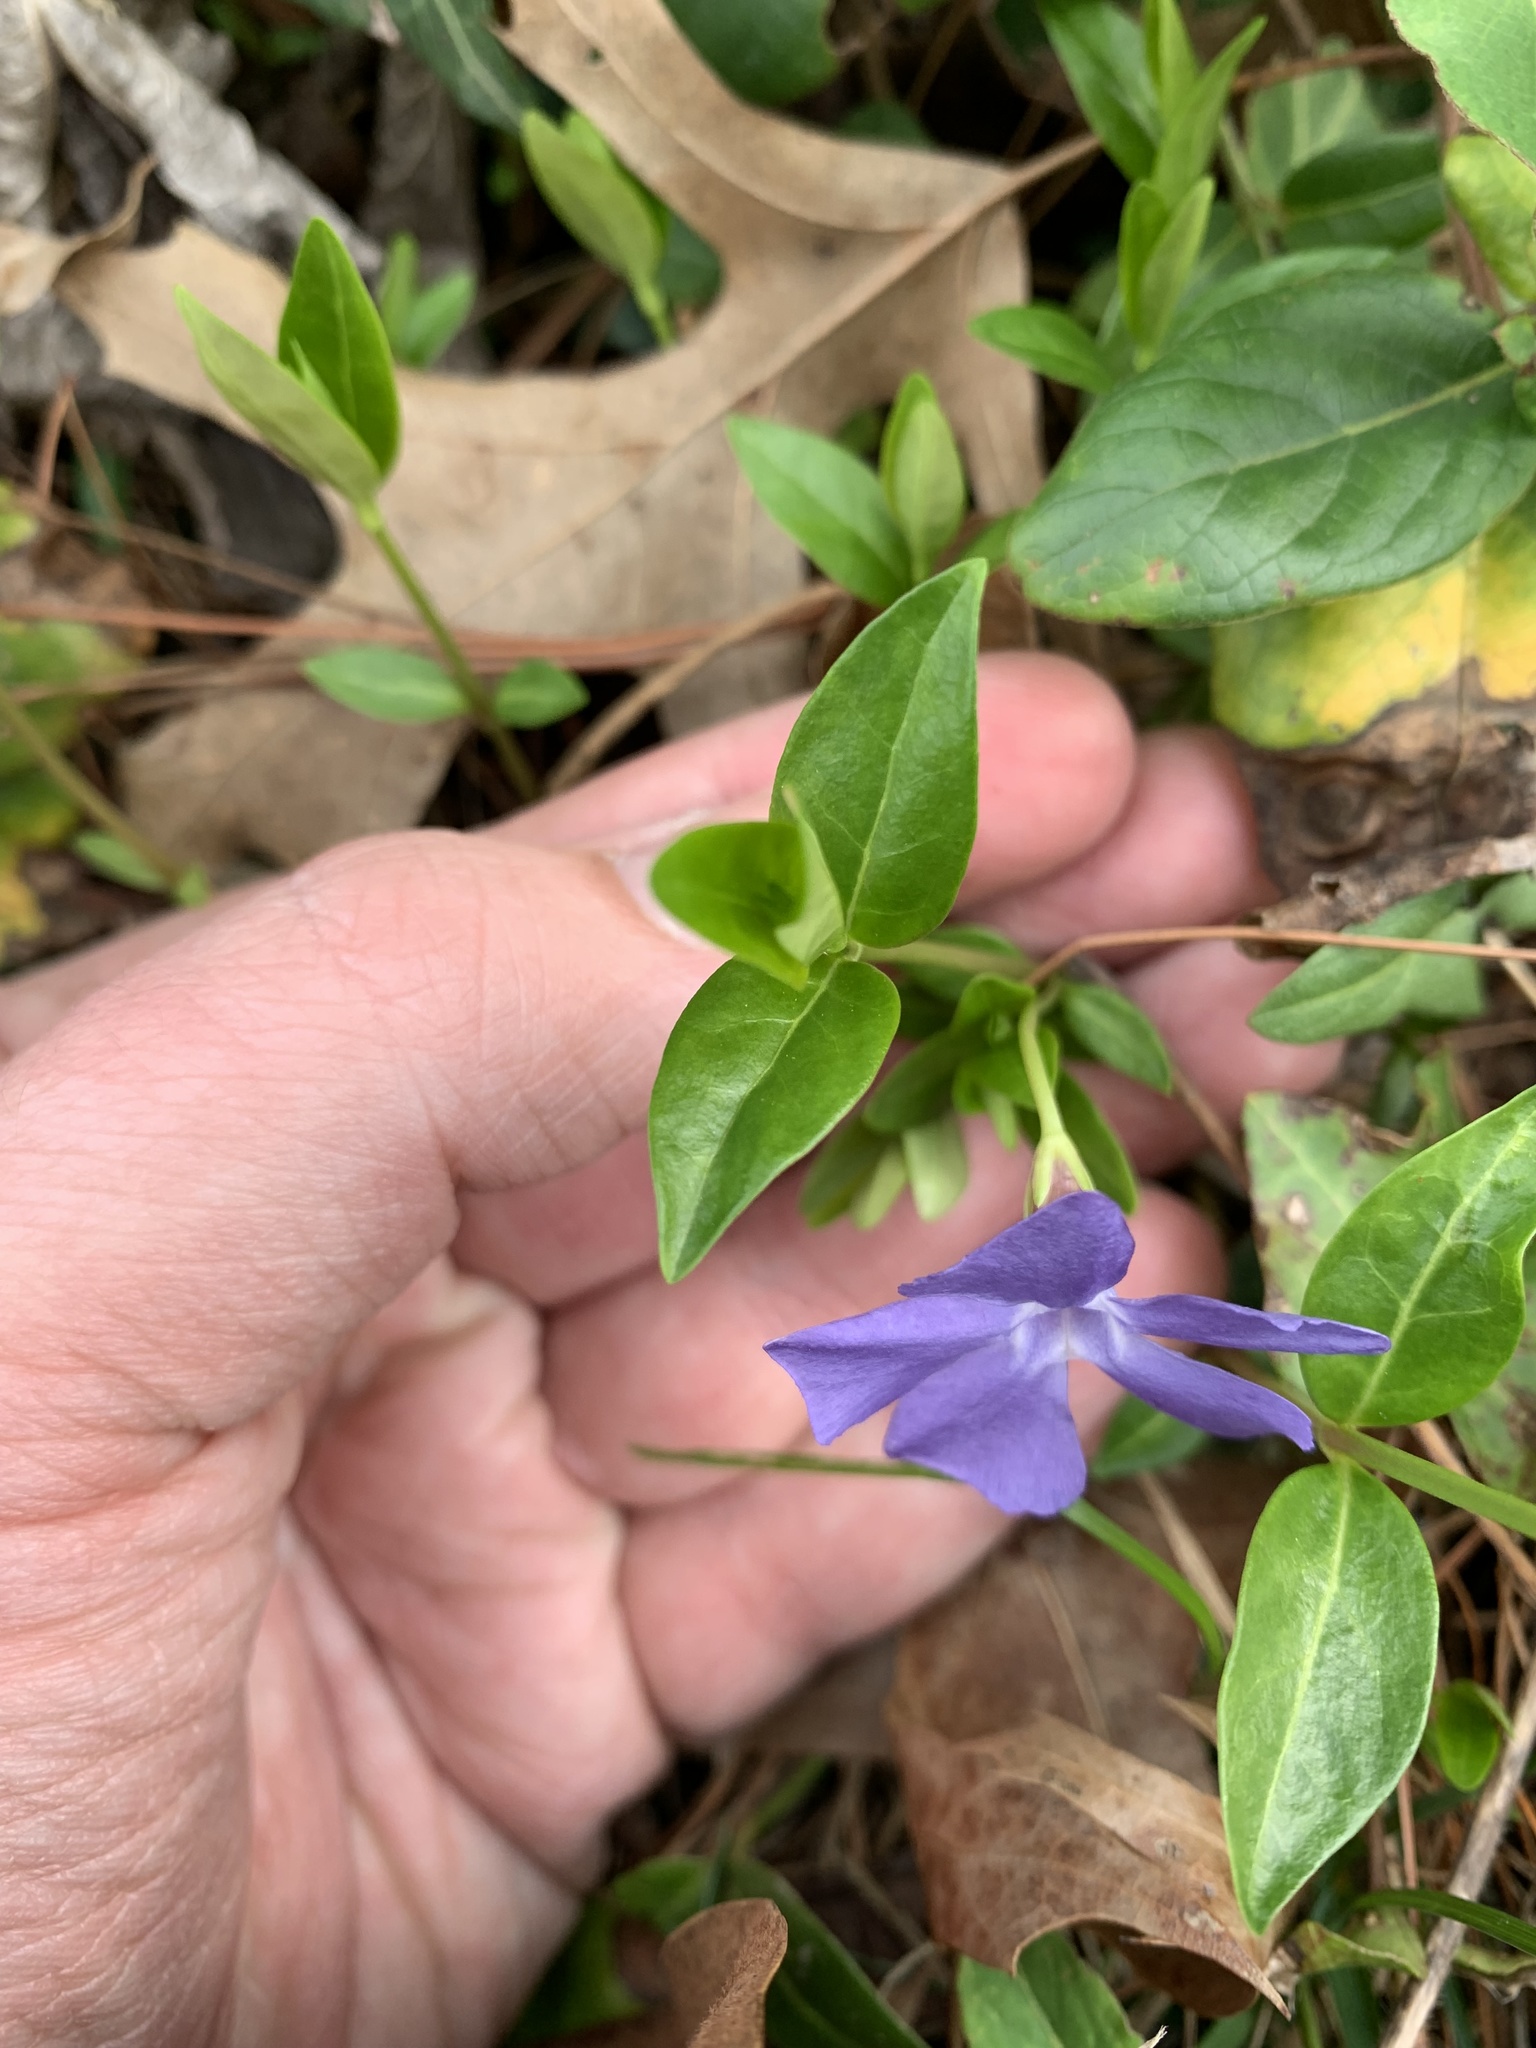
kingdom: Plantae
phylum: Tracheophyta
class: Magnoliopsida
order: Gentianales
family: Apocynaceae
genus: Vinca
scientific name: Vinca minor
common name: Lesser periwinkle
